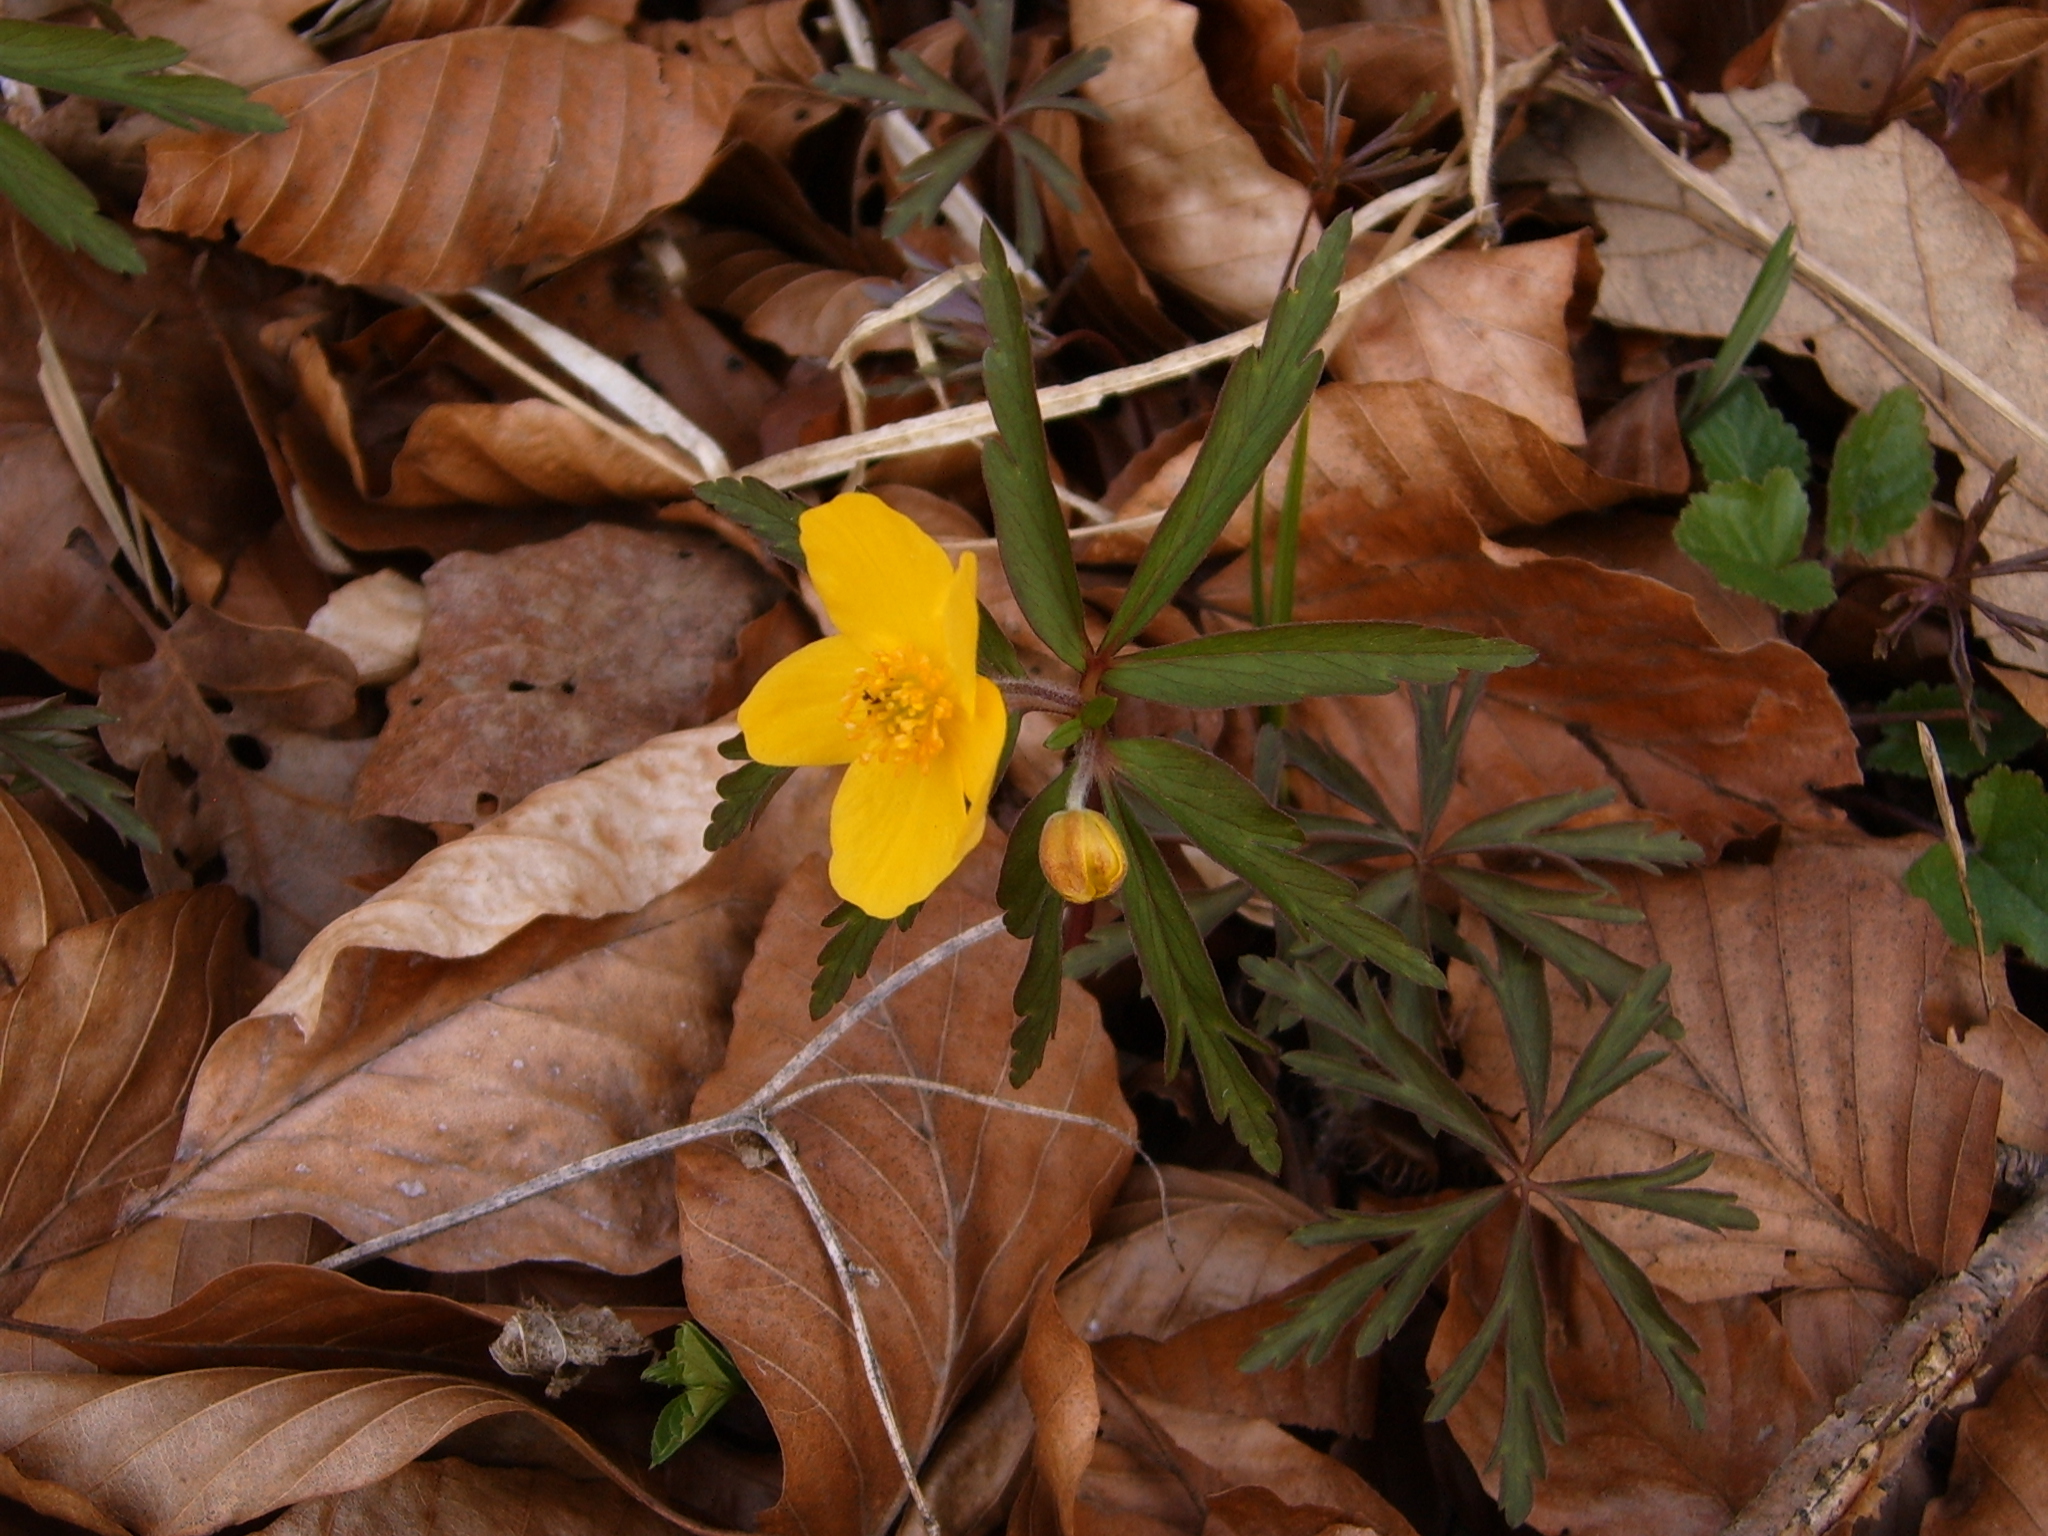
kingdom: Plantae
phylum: Tracheophyta
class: Magnoliopsida
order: Ranunculales
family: Ranunculaceae
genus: Anemone
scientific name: Anemone ranunculoides
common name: Yellow anemone
